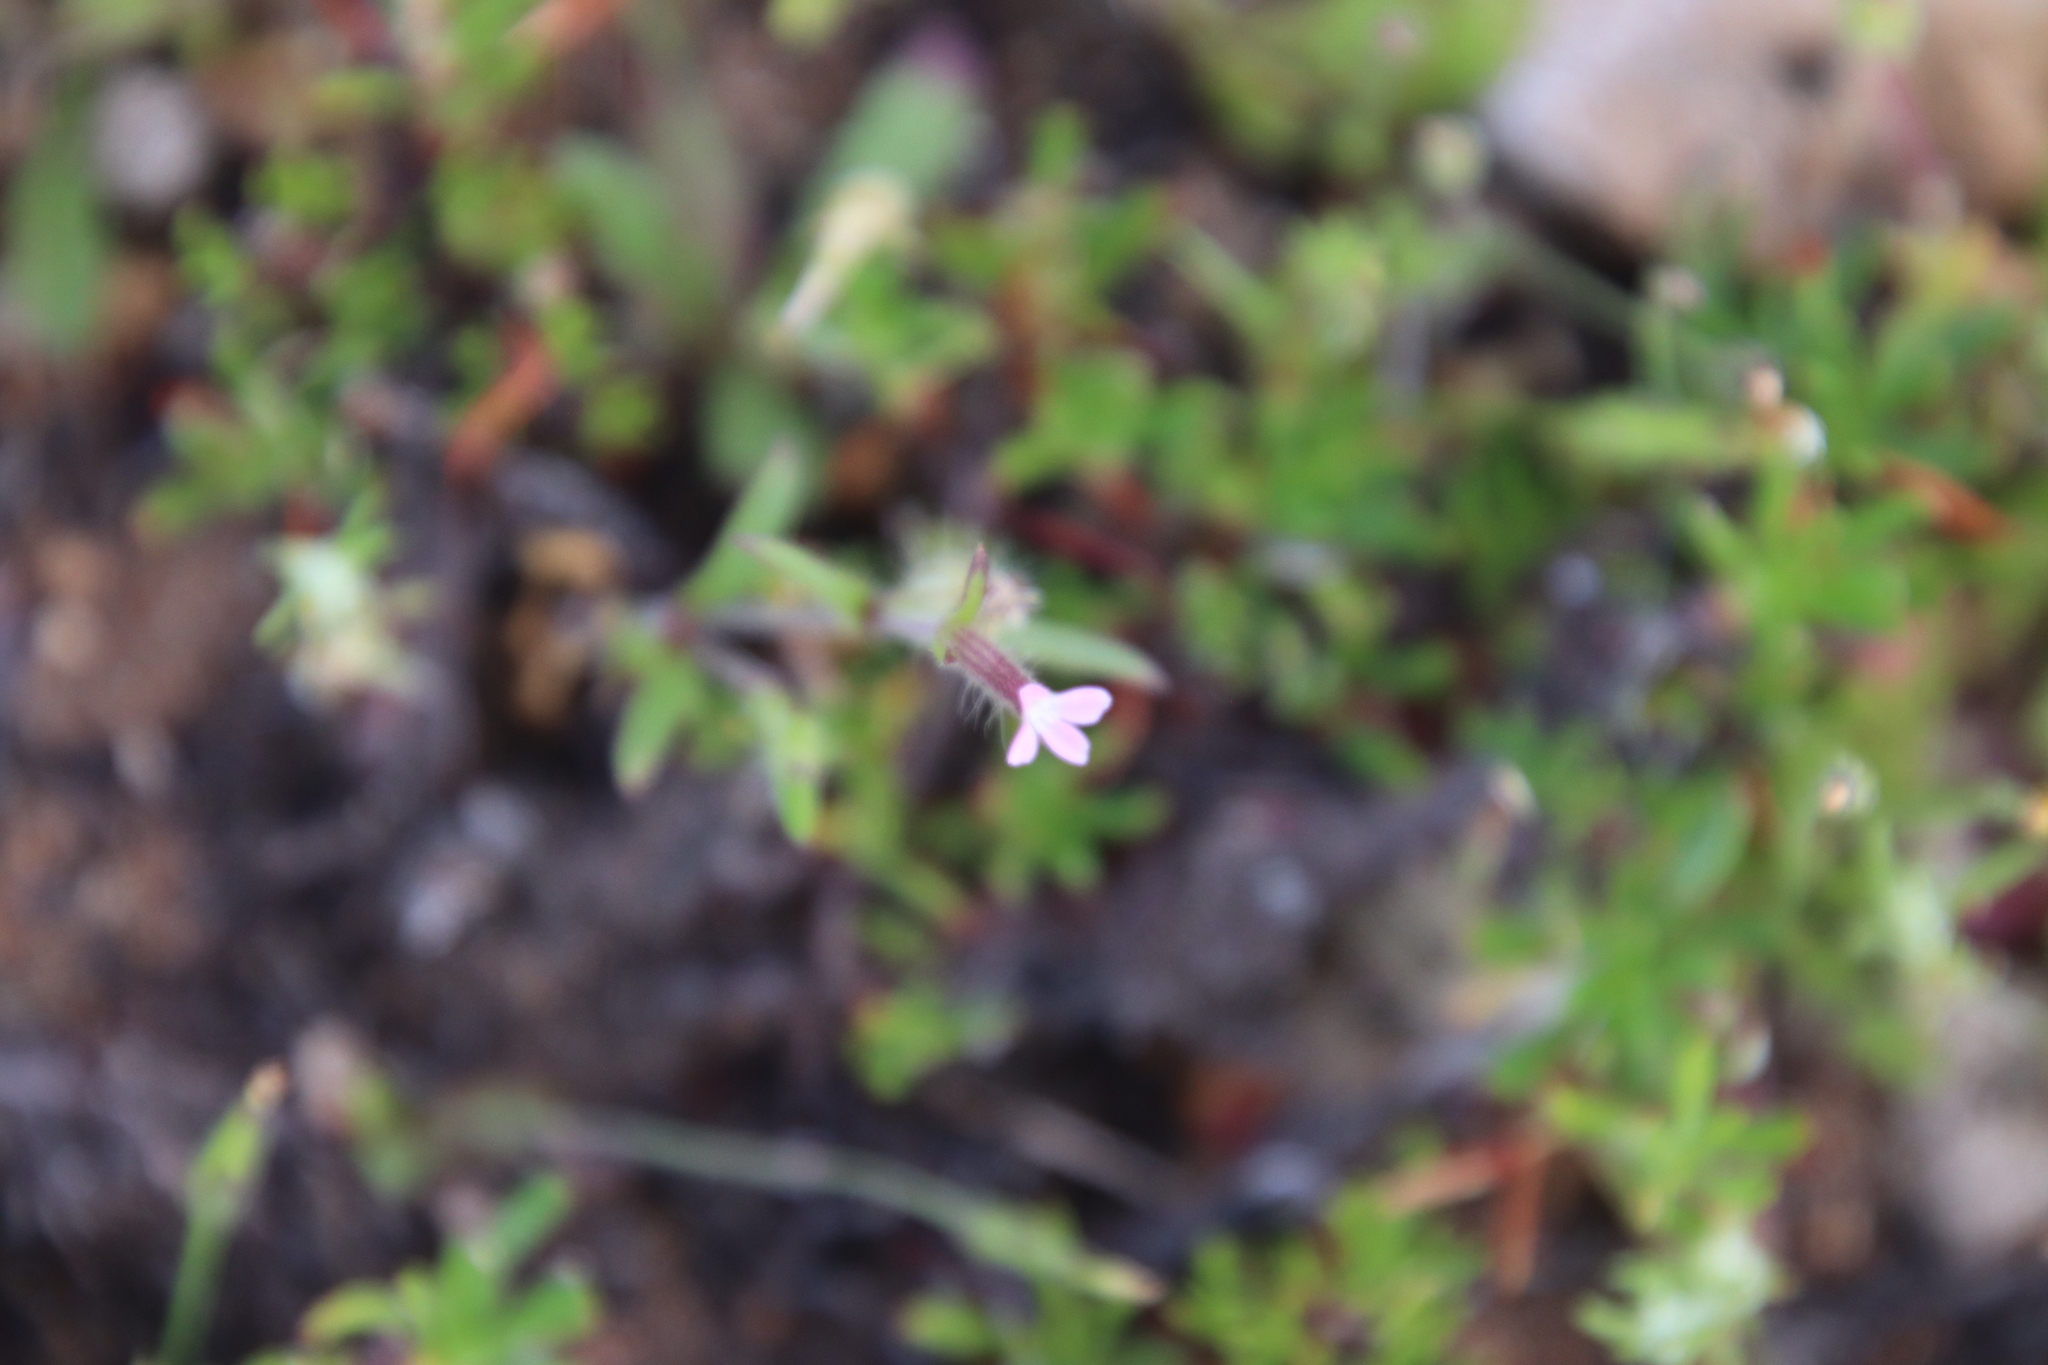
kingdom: Plantae
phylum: Tracheophyta
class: Magnoliopsida
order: Caryophyllales
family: Caryophyllaceae
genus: Silene
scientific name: Silene gallica
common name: Small-flowered catchfly
